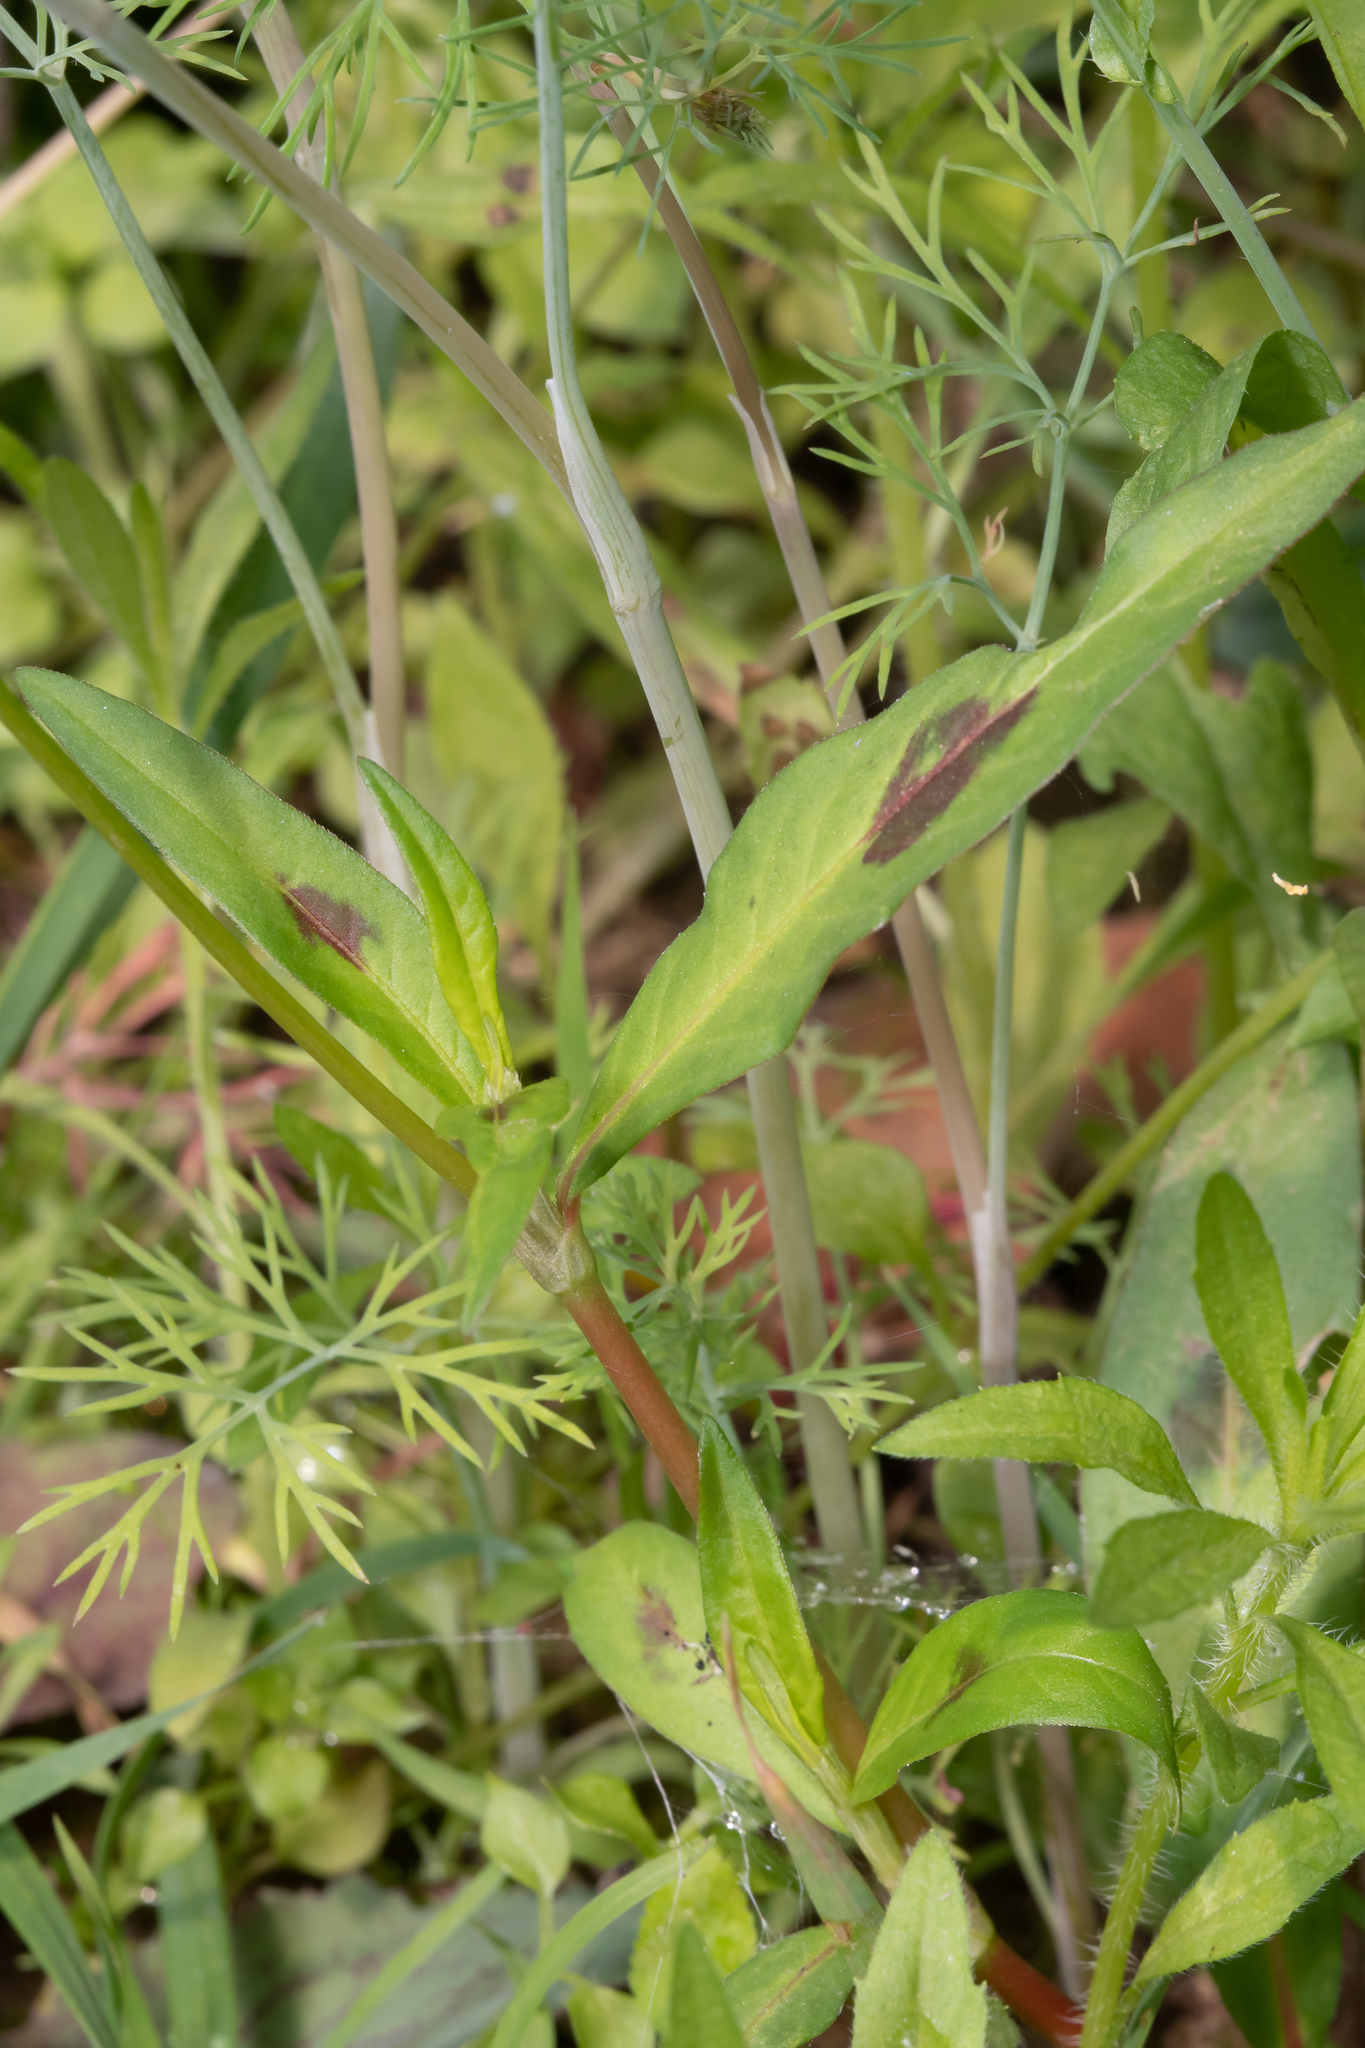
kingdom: Plantae
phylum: Tracheophyta
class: Magnoliopsida
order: Caryophyllales
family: Polygonaceae
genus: Persicaria
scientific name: Persicaria maculosa
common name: Redshank
